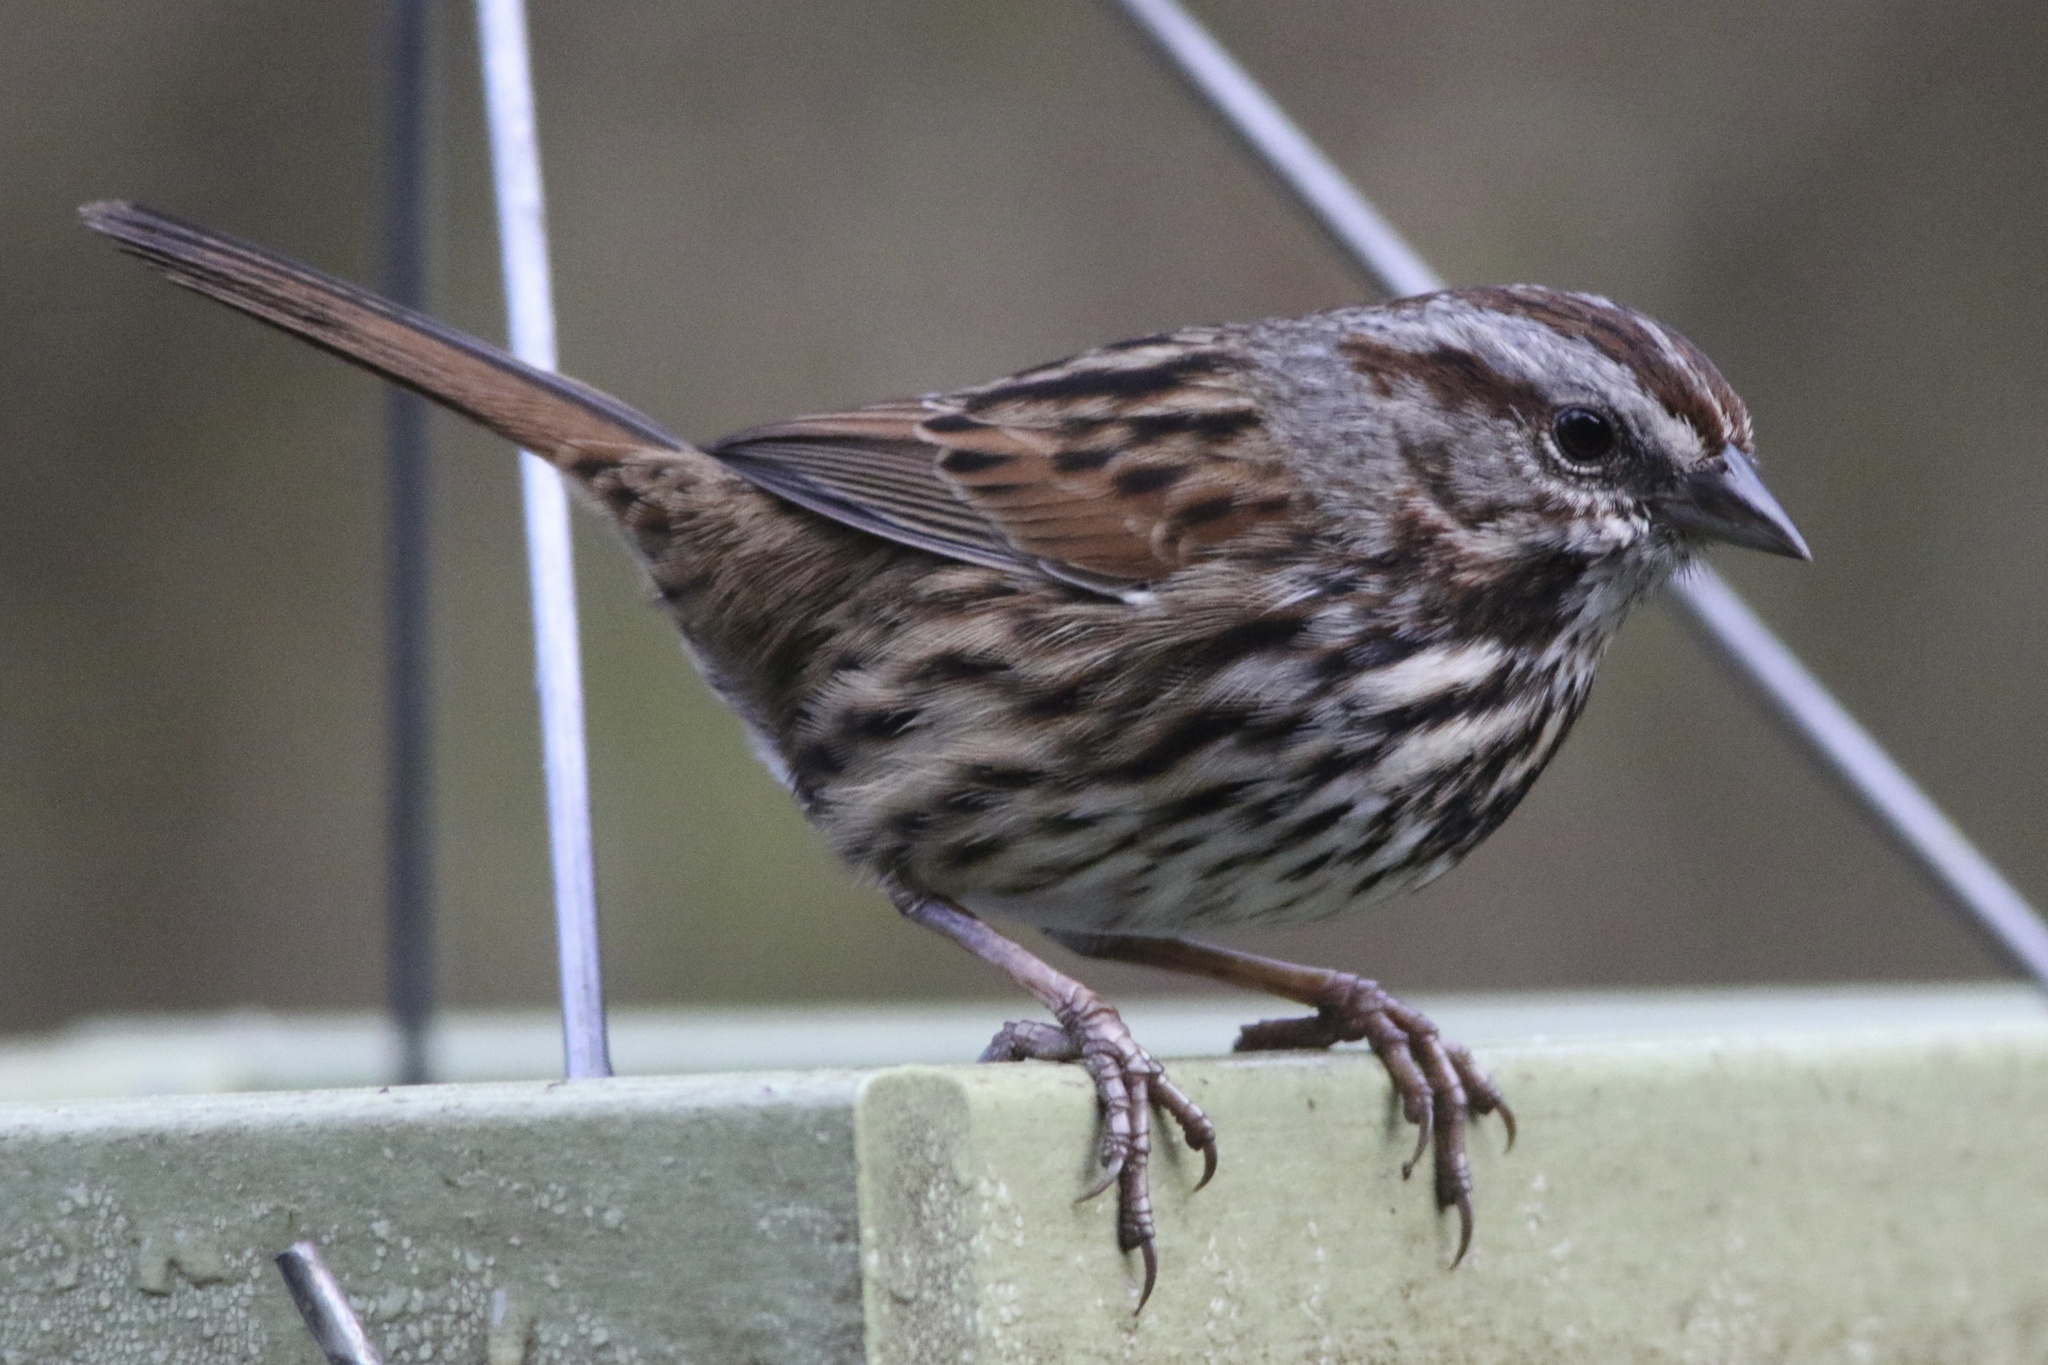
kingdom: Animalia
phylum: Chordata
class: Aves
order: Passeriformes
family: Passerellidae
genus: Melospiza
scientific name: Melospiza melodia
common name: Song sparrow
